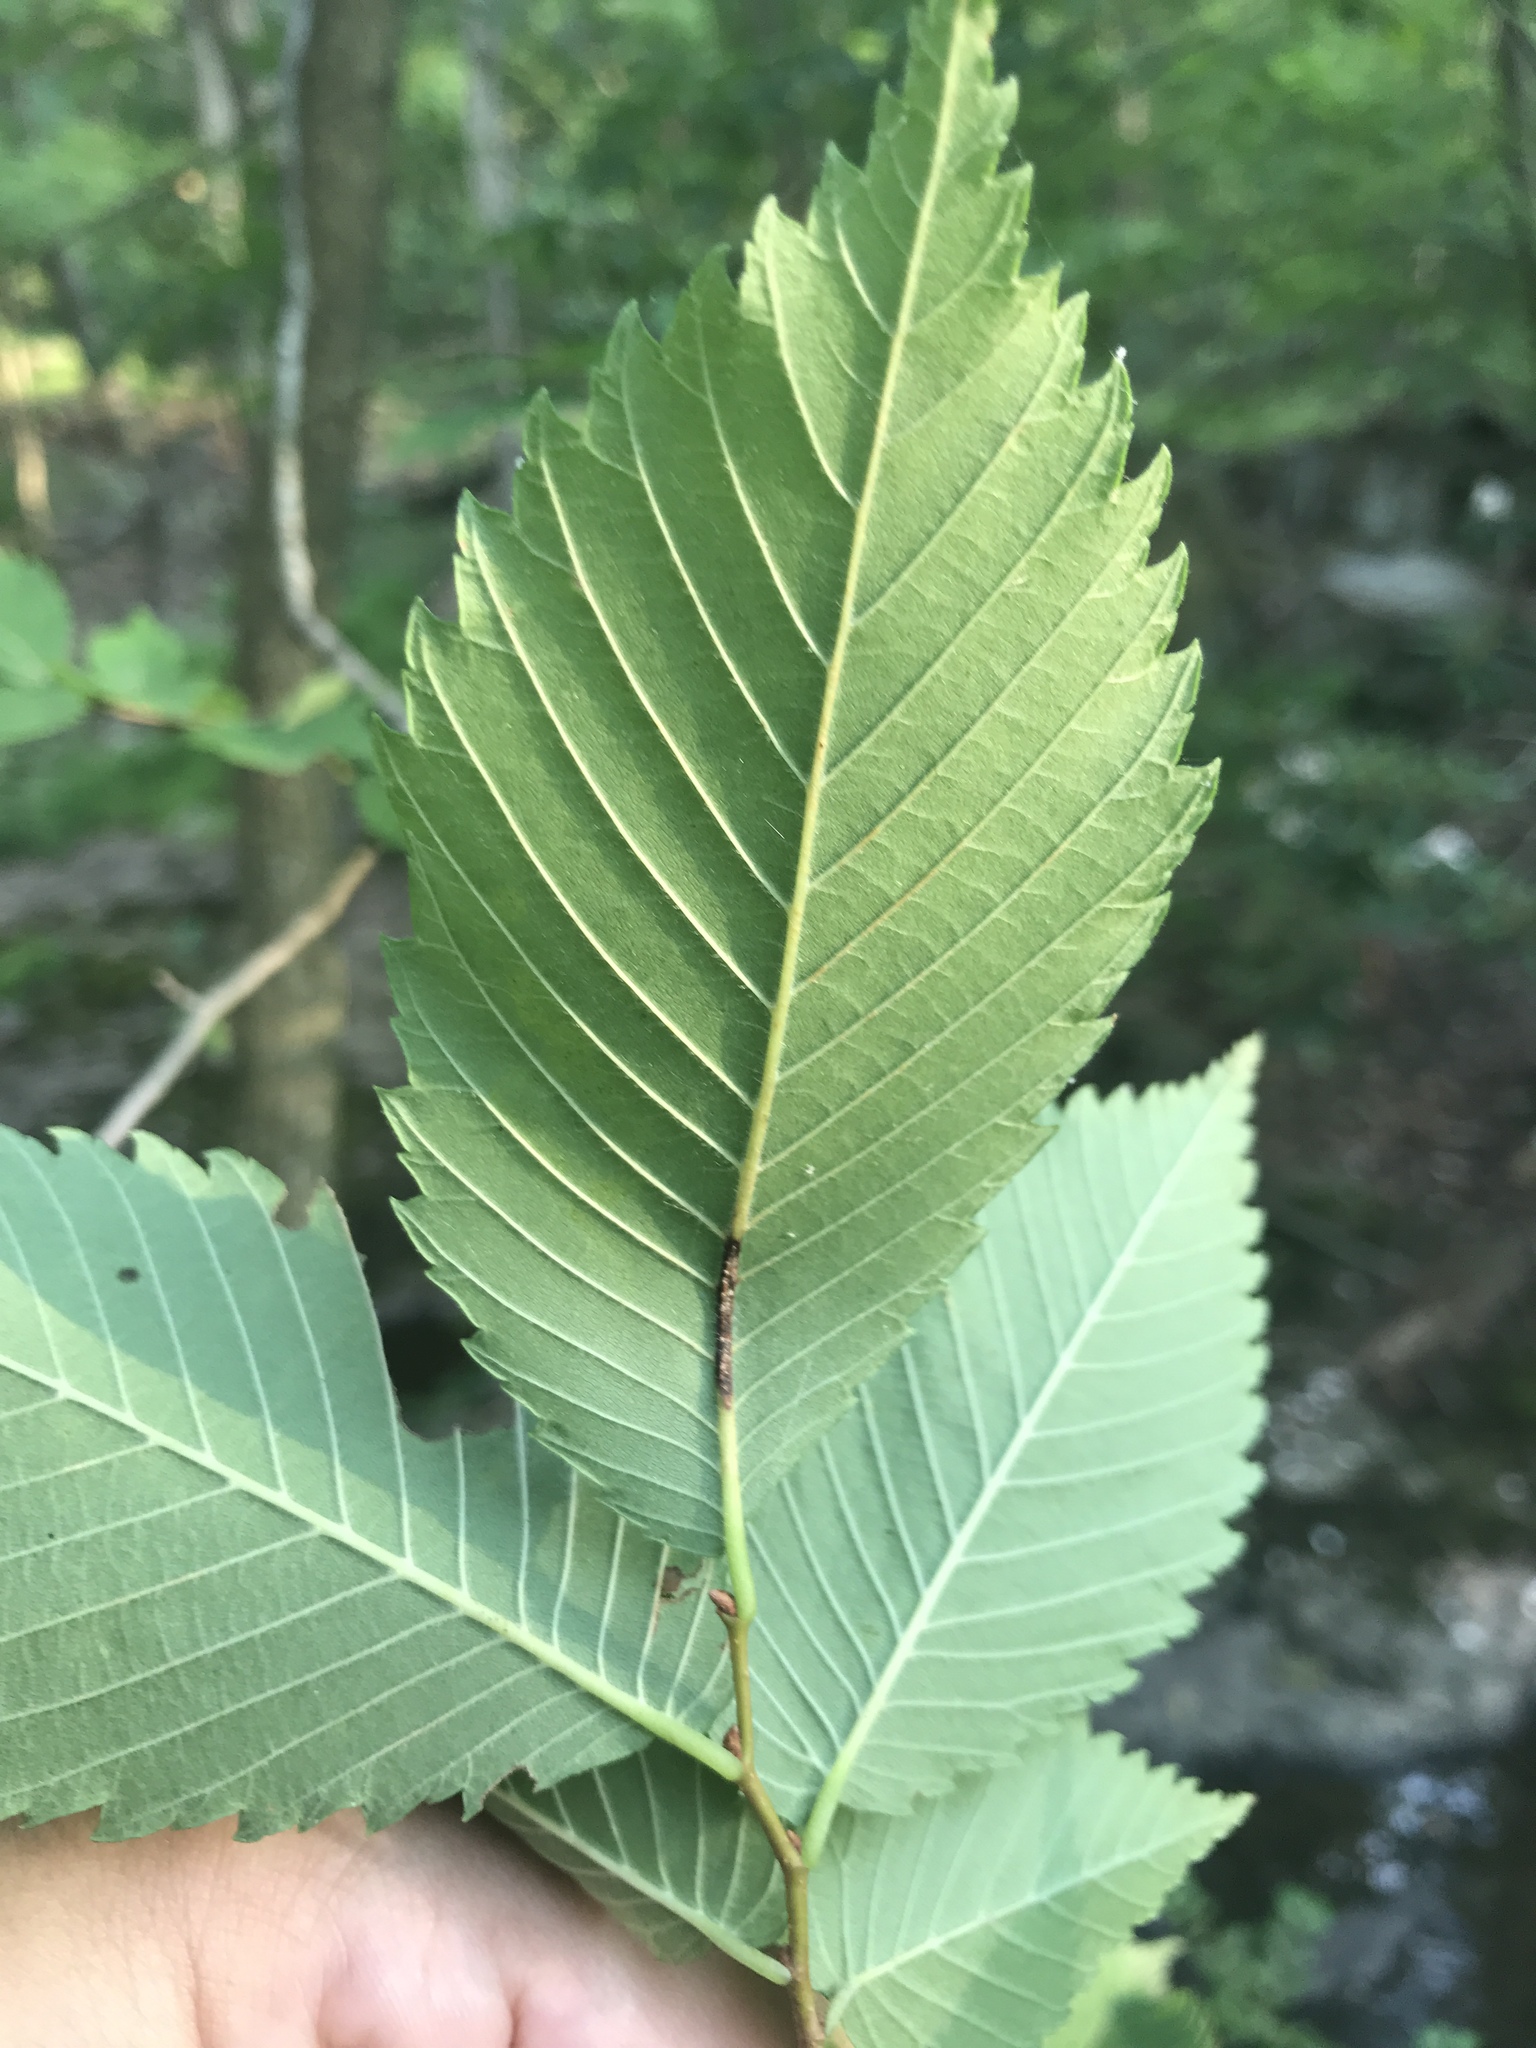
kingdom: Plantae
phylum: Tracheophyta
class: Magnoliopsida
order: Rosales
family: Ulmaceae
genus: Ulmus
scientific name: Ulmus americana
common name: American elm
